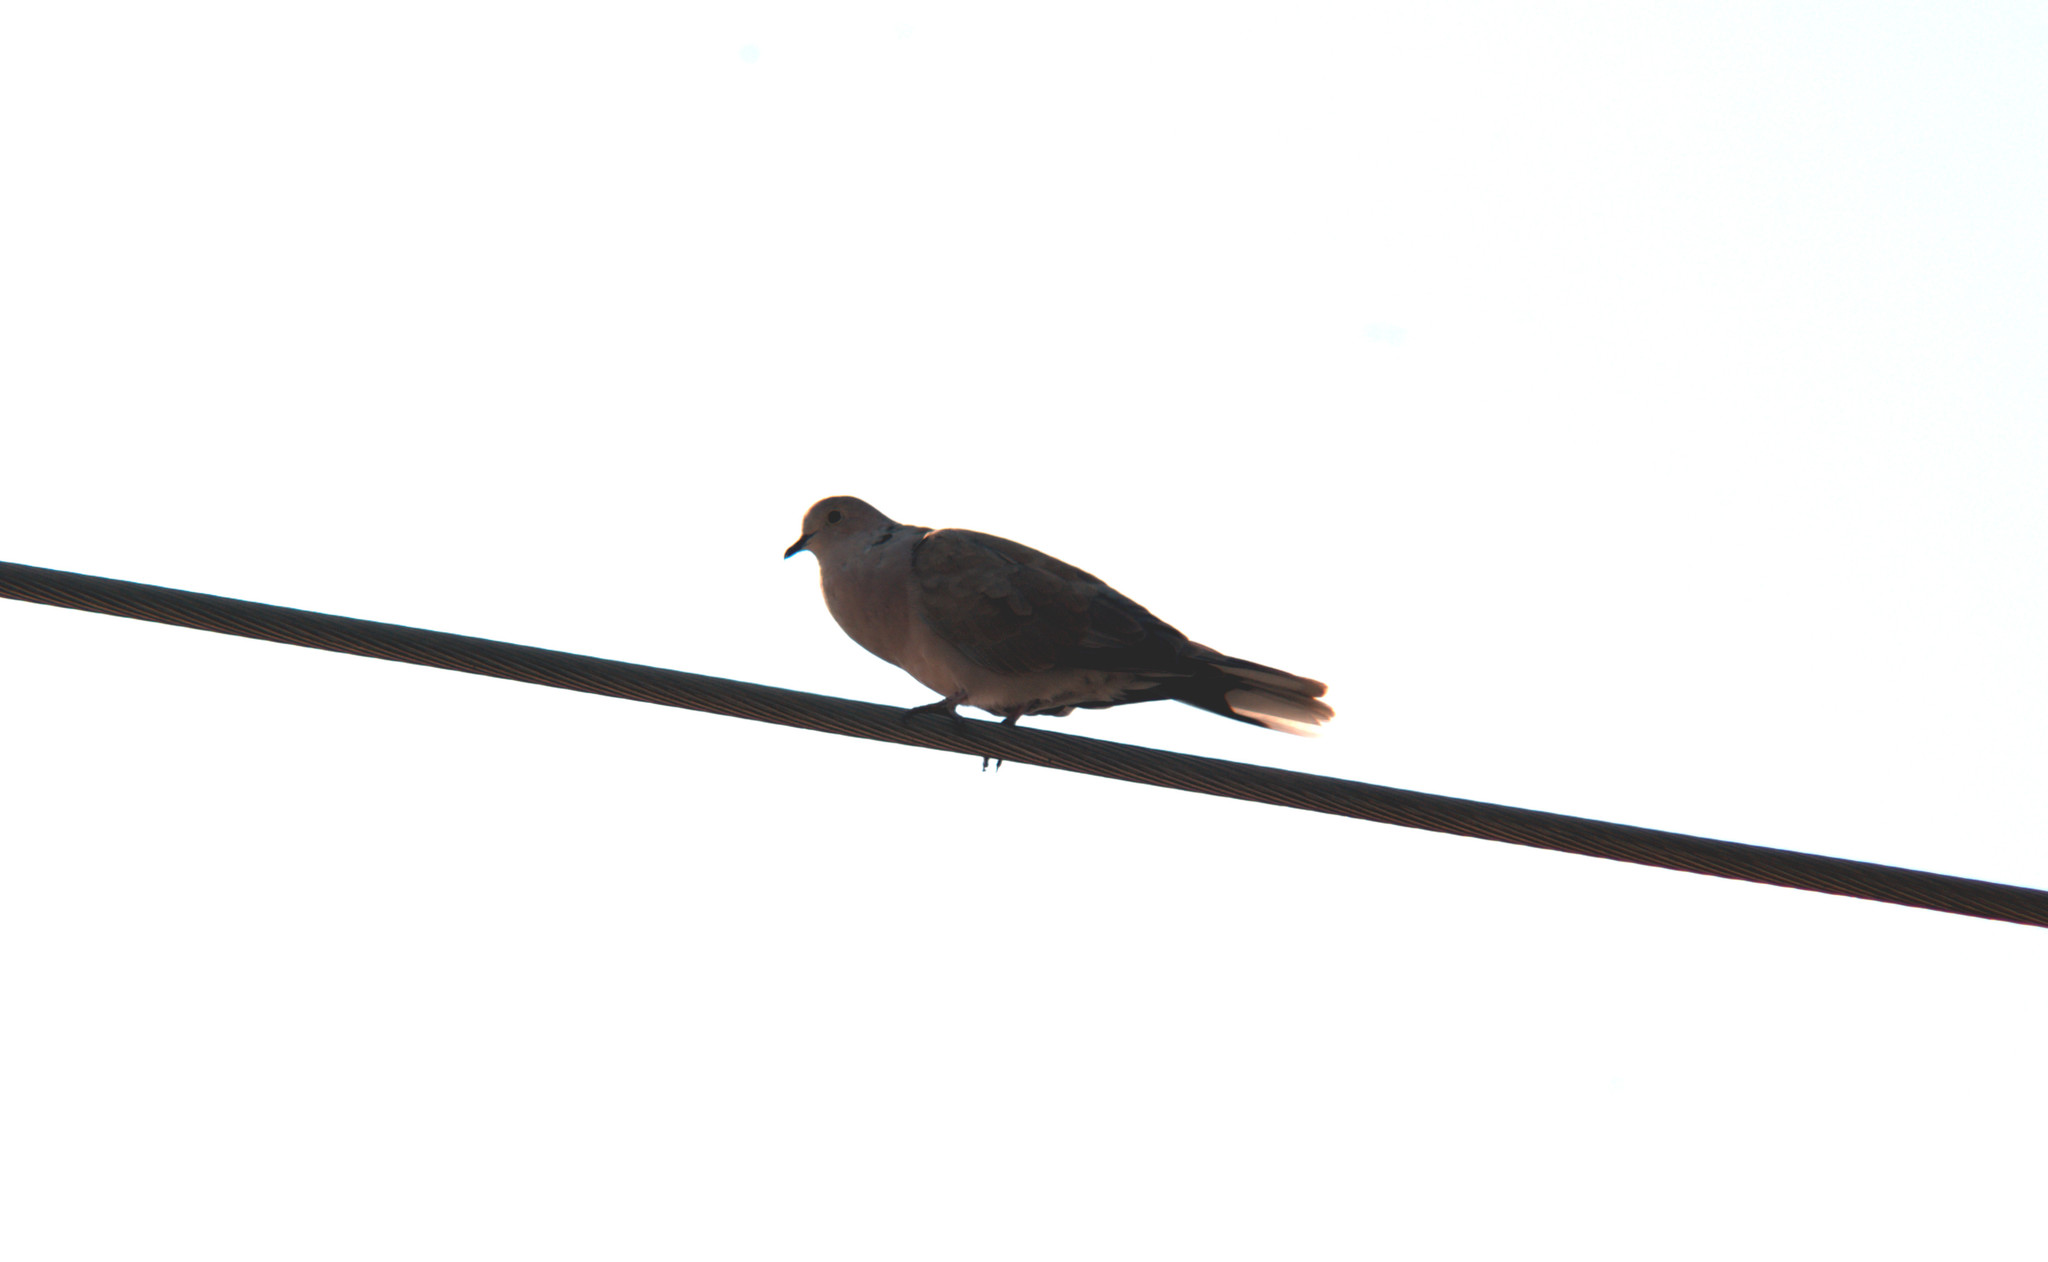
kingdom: Animalia
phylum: Chordata
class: Aves
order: Columbiformes
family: Columbidae
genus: Streptopelia
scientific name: Streptopelia decaocto
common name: Eurasian collared dove
